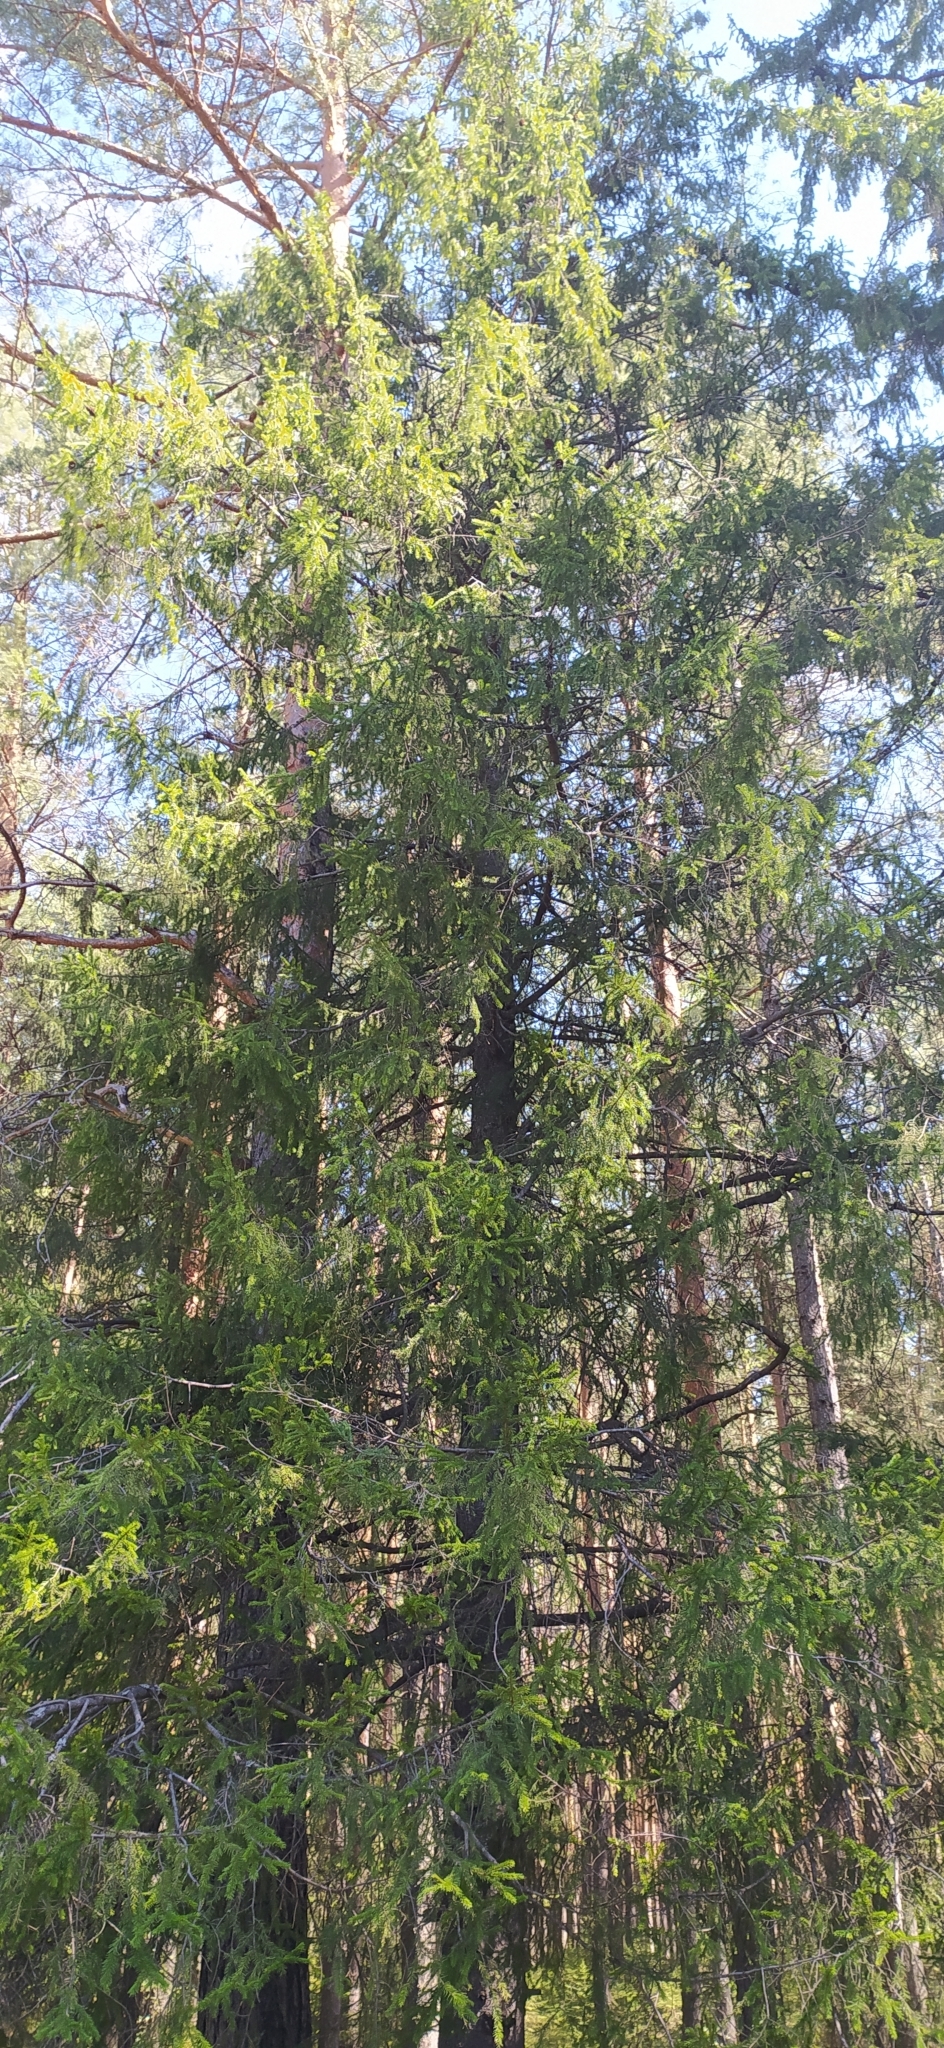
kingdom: Plantae
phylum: Tracheophyta
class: Pinopsida
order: Pinales
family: Pinaceae
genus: Picea
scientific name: Picea obovata
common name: Siberian spruce
